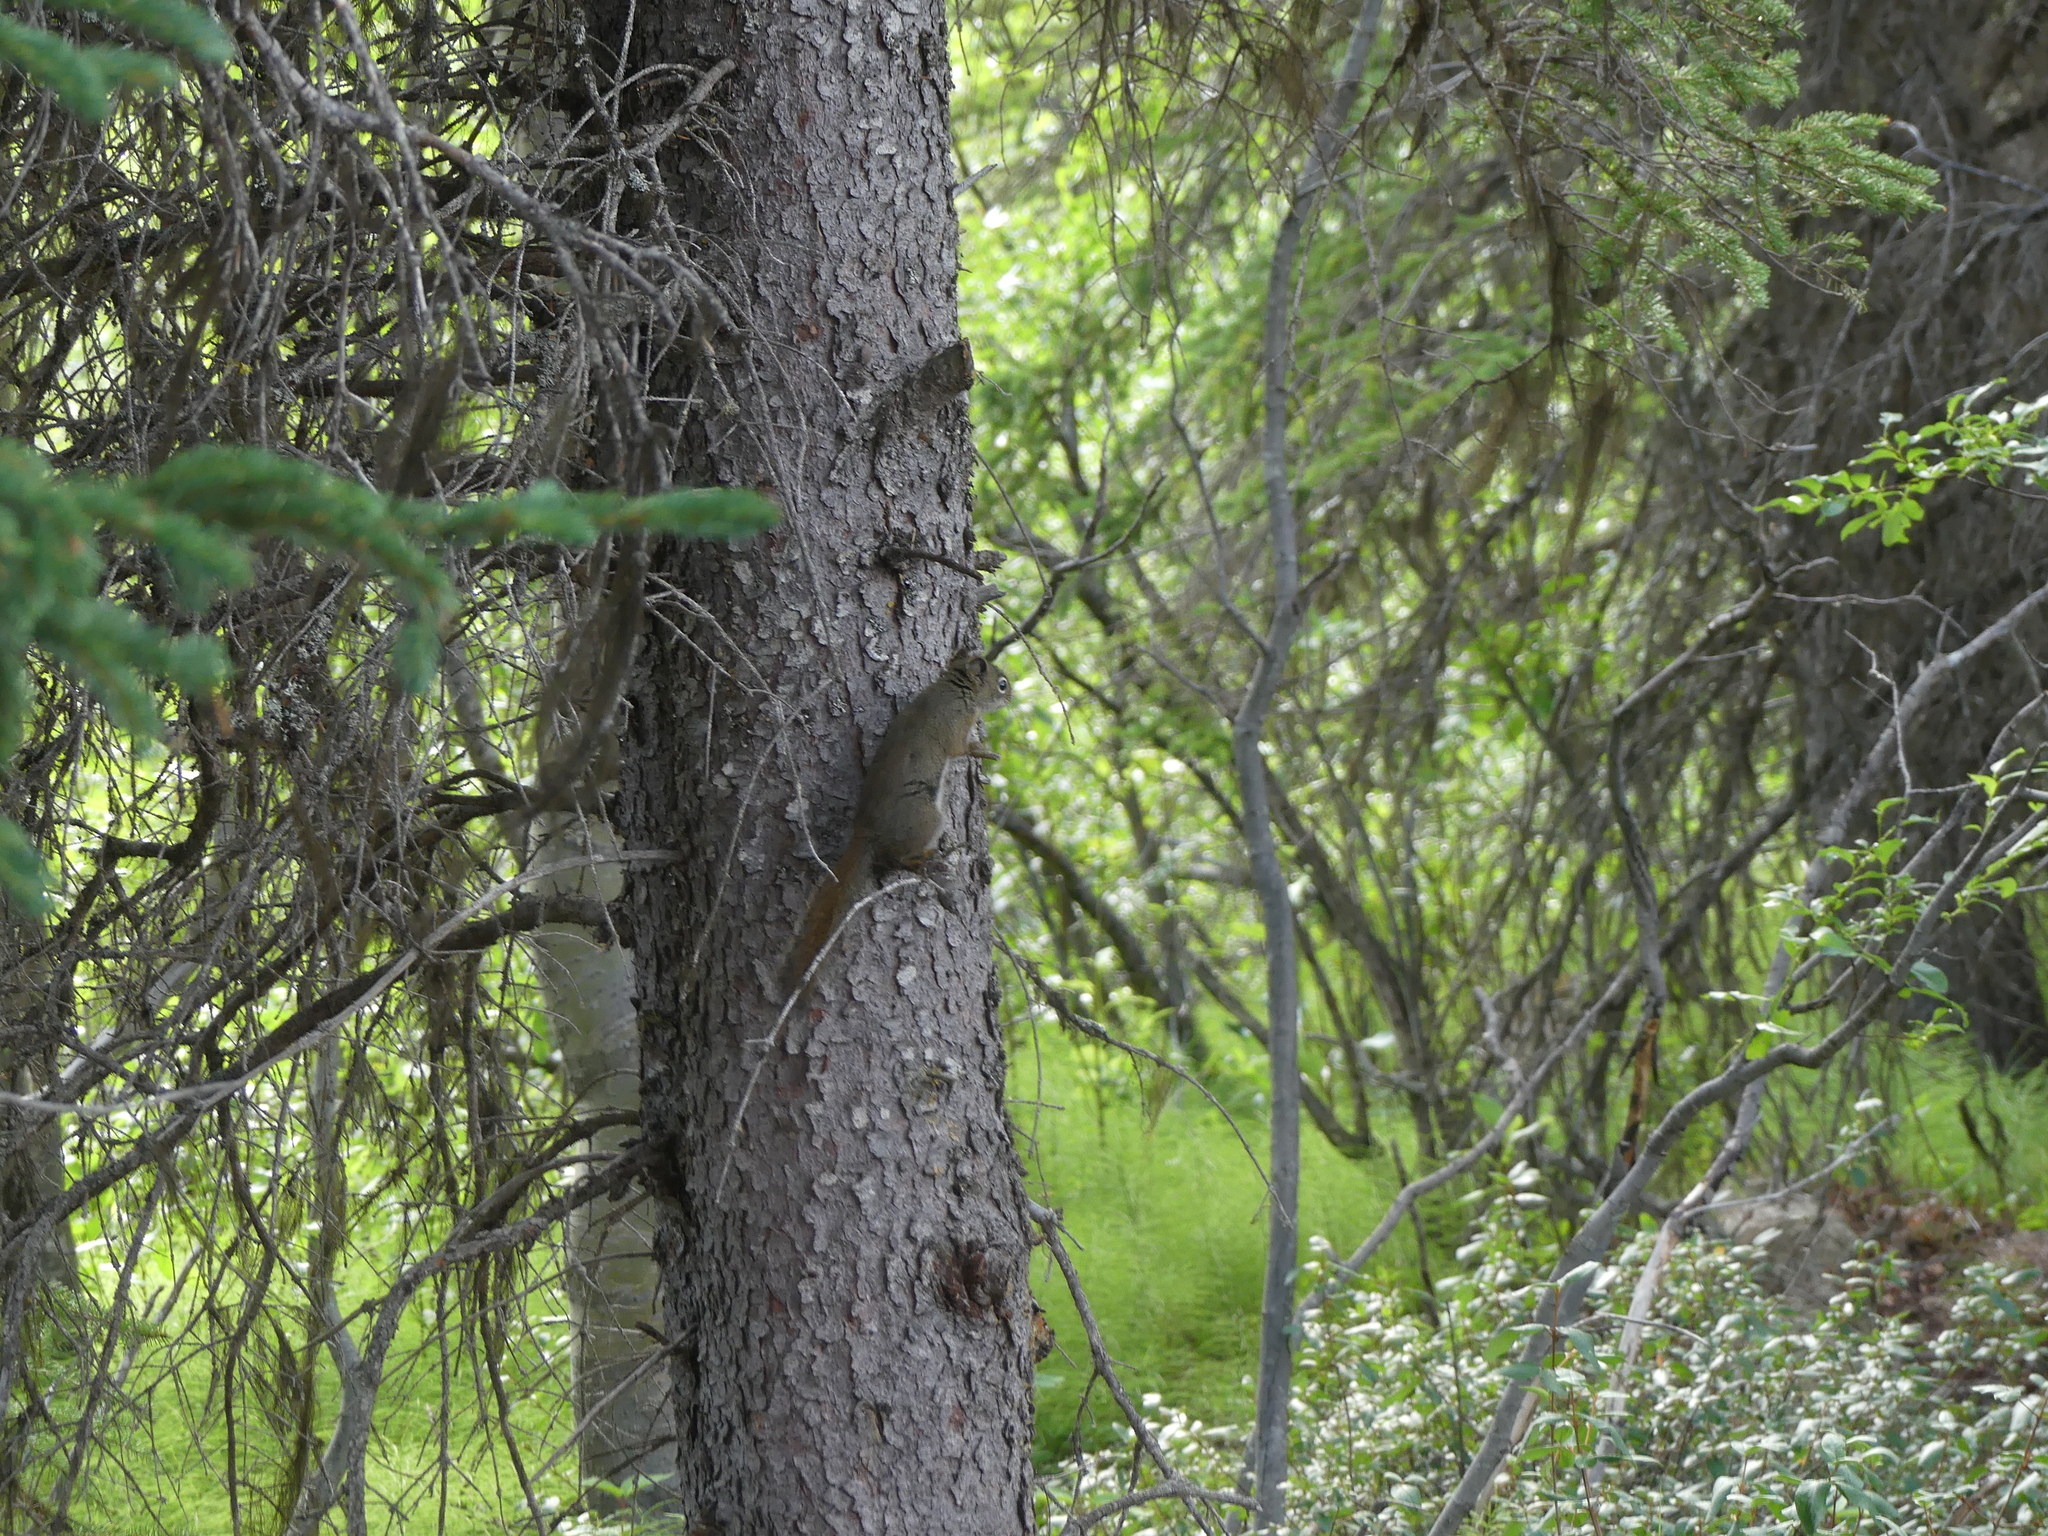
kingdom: Animalia
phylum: Chordata
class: Mammalia
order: Rodentia
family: Sciuridae
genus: Tamiasciurus
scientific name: Tamiasciurus hudsonicus
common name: Red squirrel
